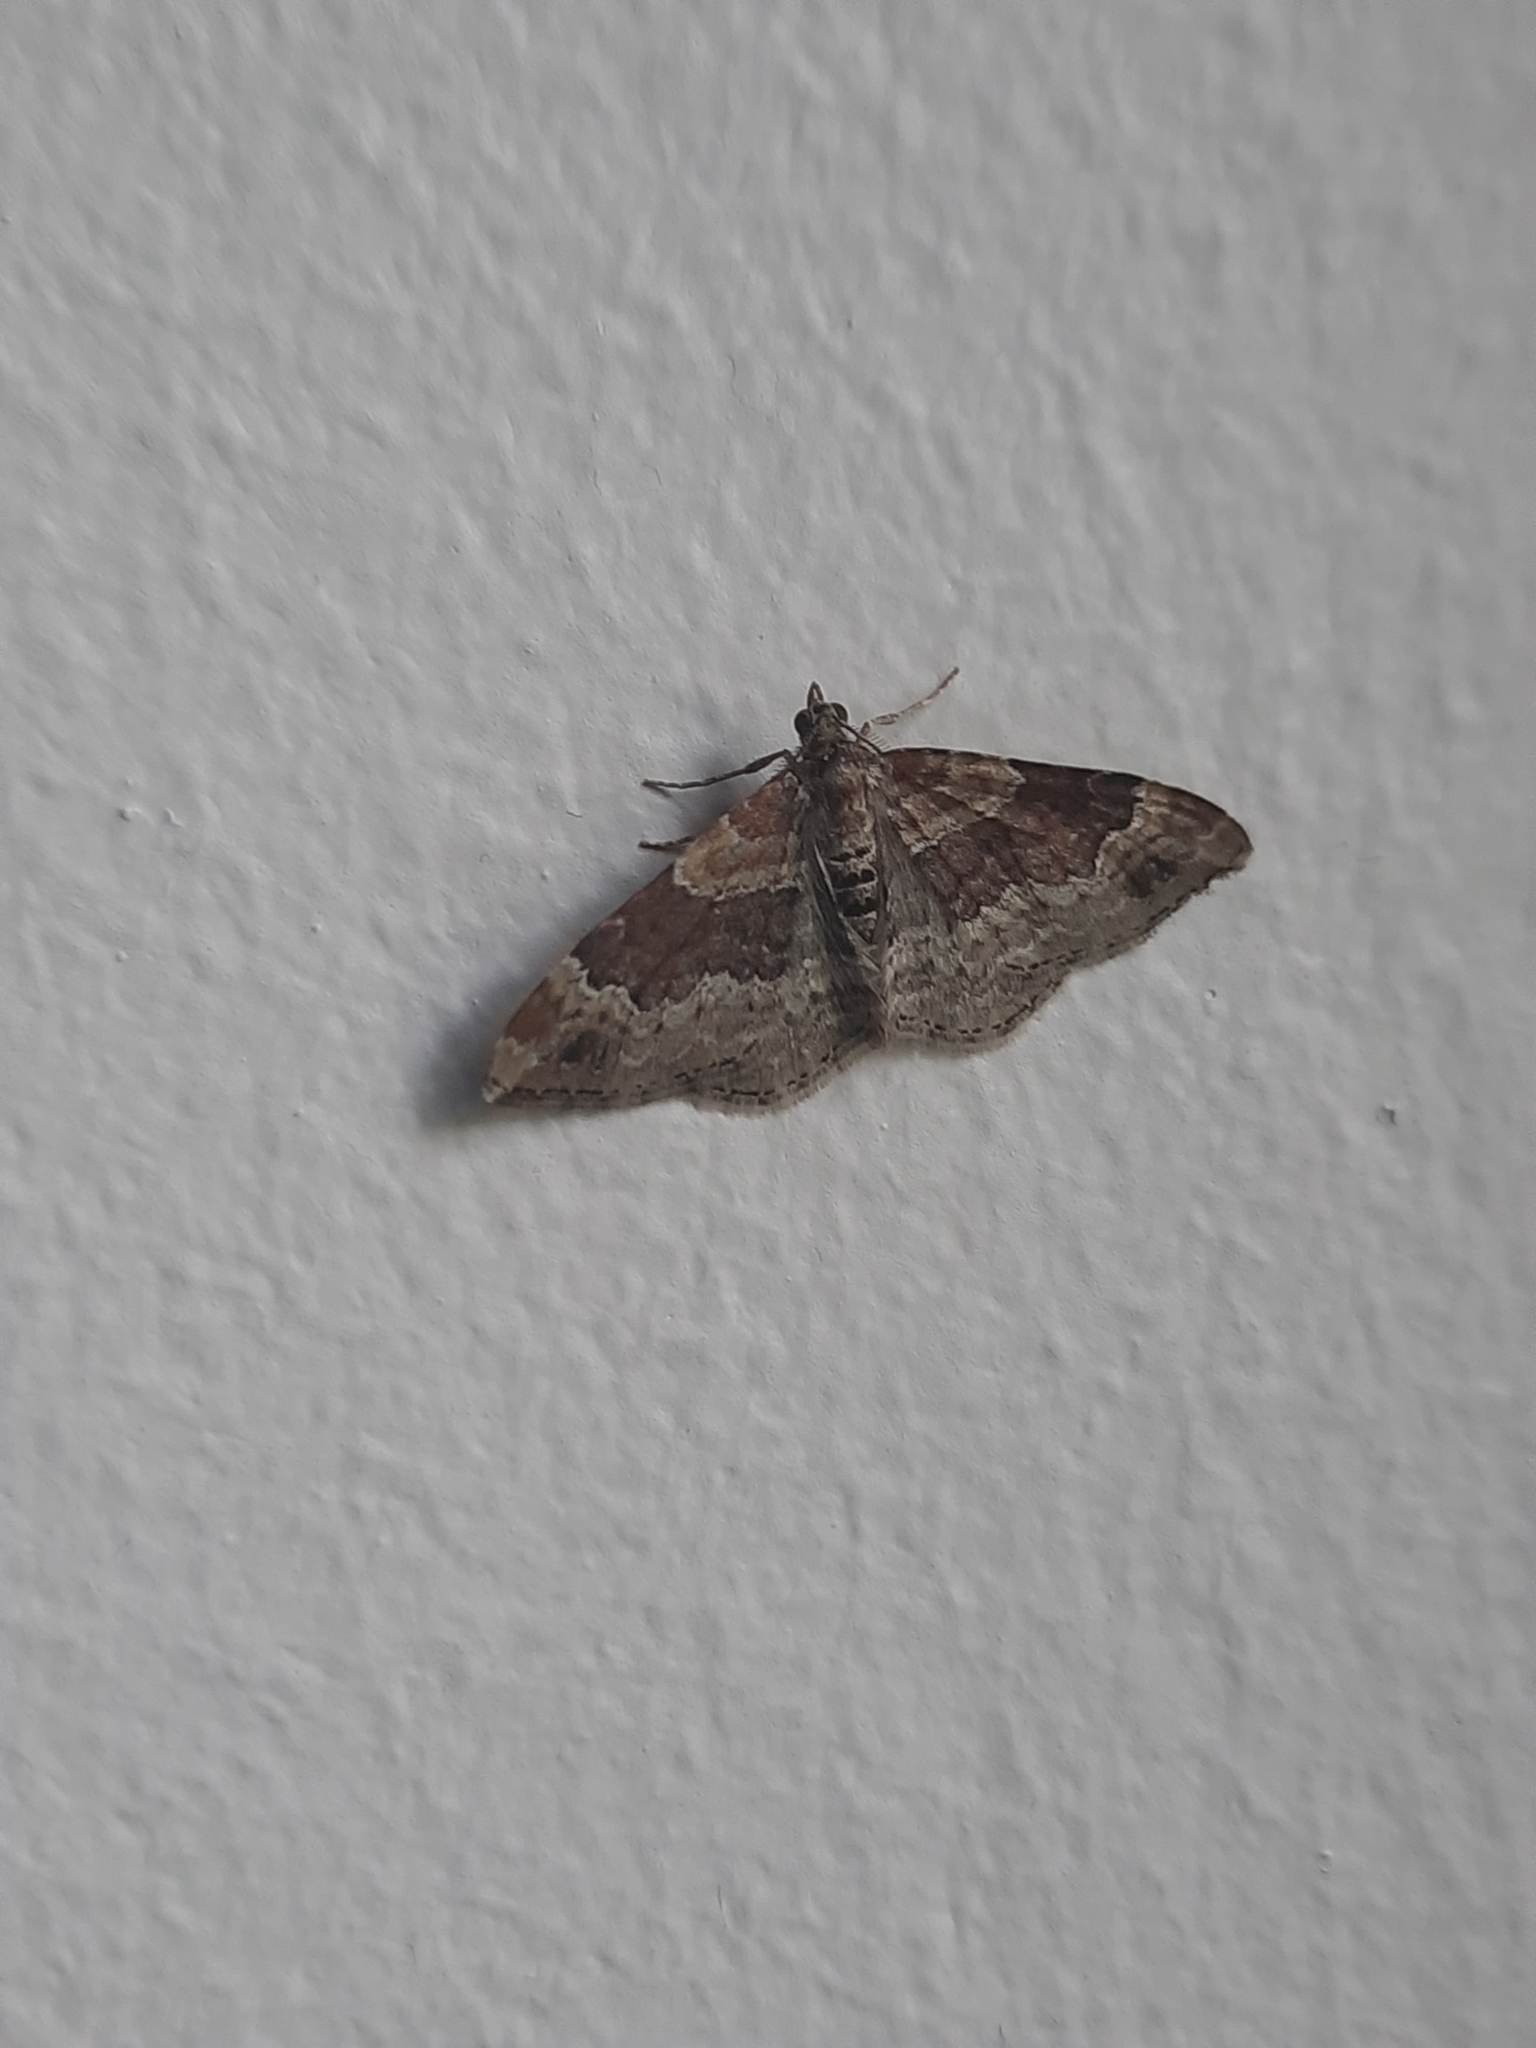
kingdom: Animalia
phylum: Arthropoda
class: Insecta
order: Lepidoptera
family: Geometridae
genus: Xanthorhoe
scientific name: Xanthorhoe spadicearia
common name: Red twin-spot carpet
